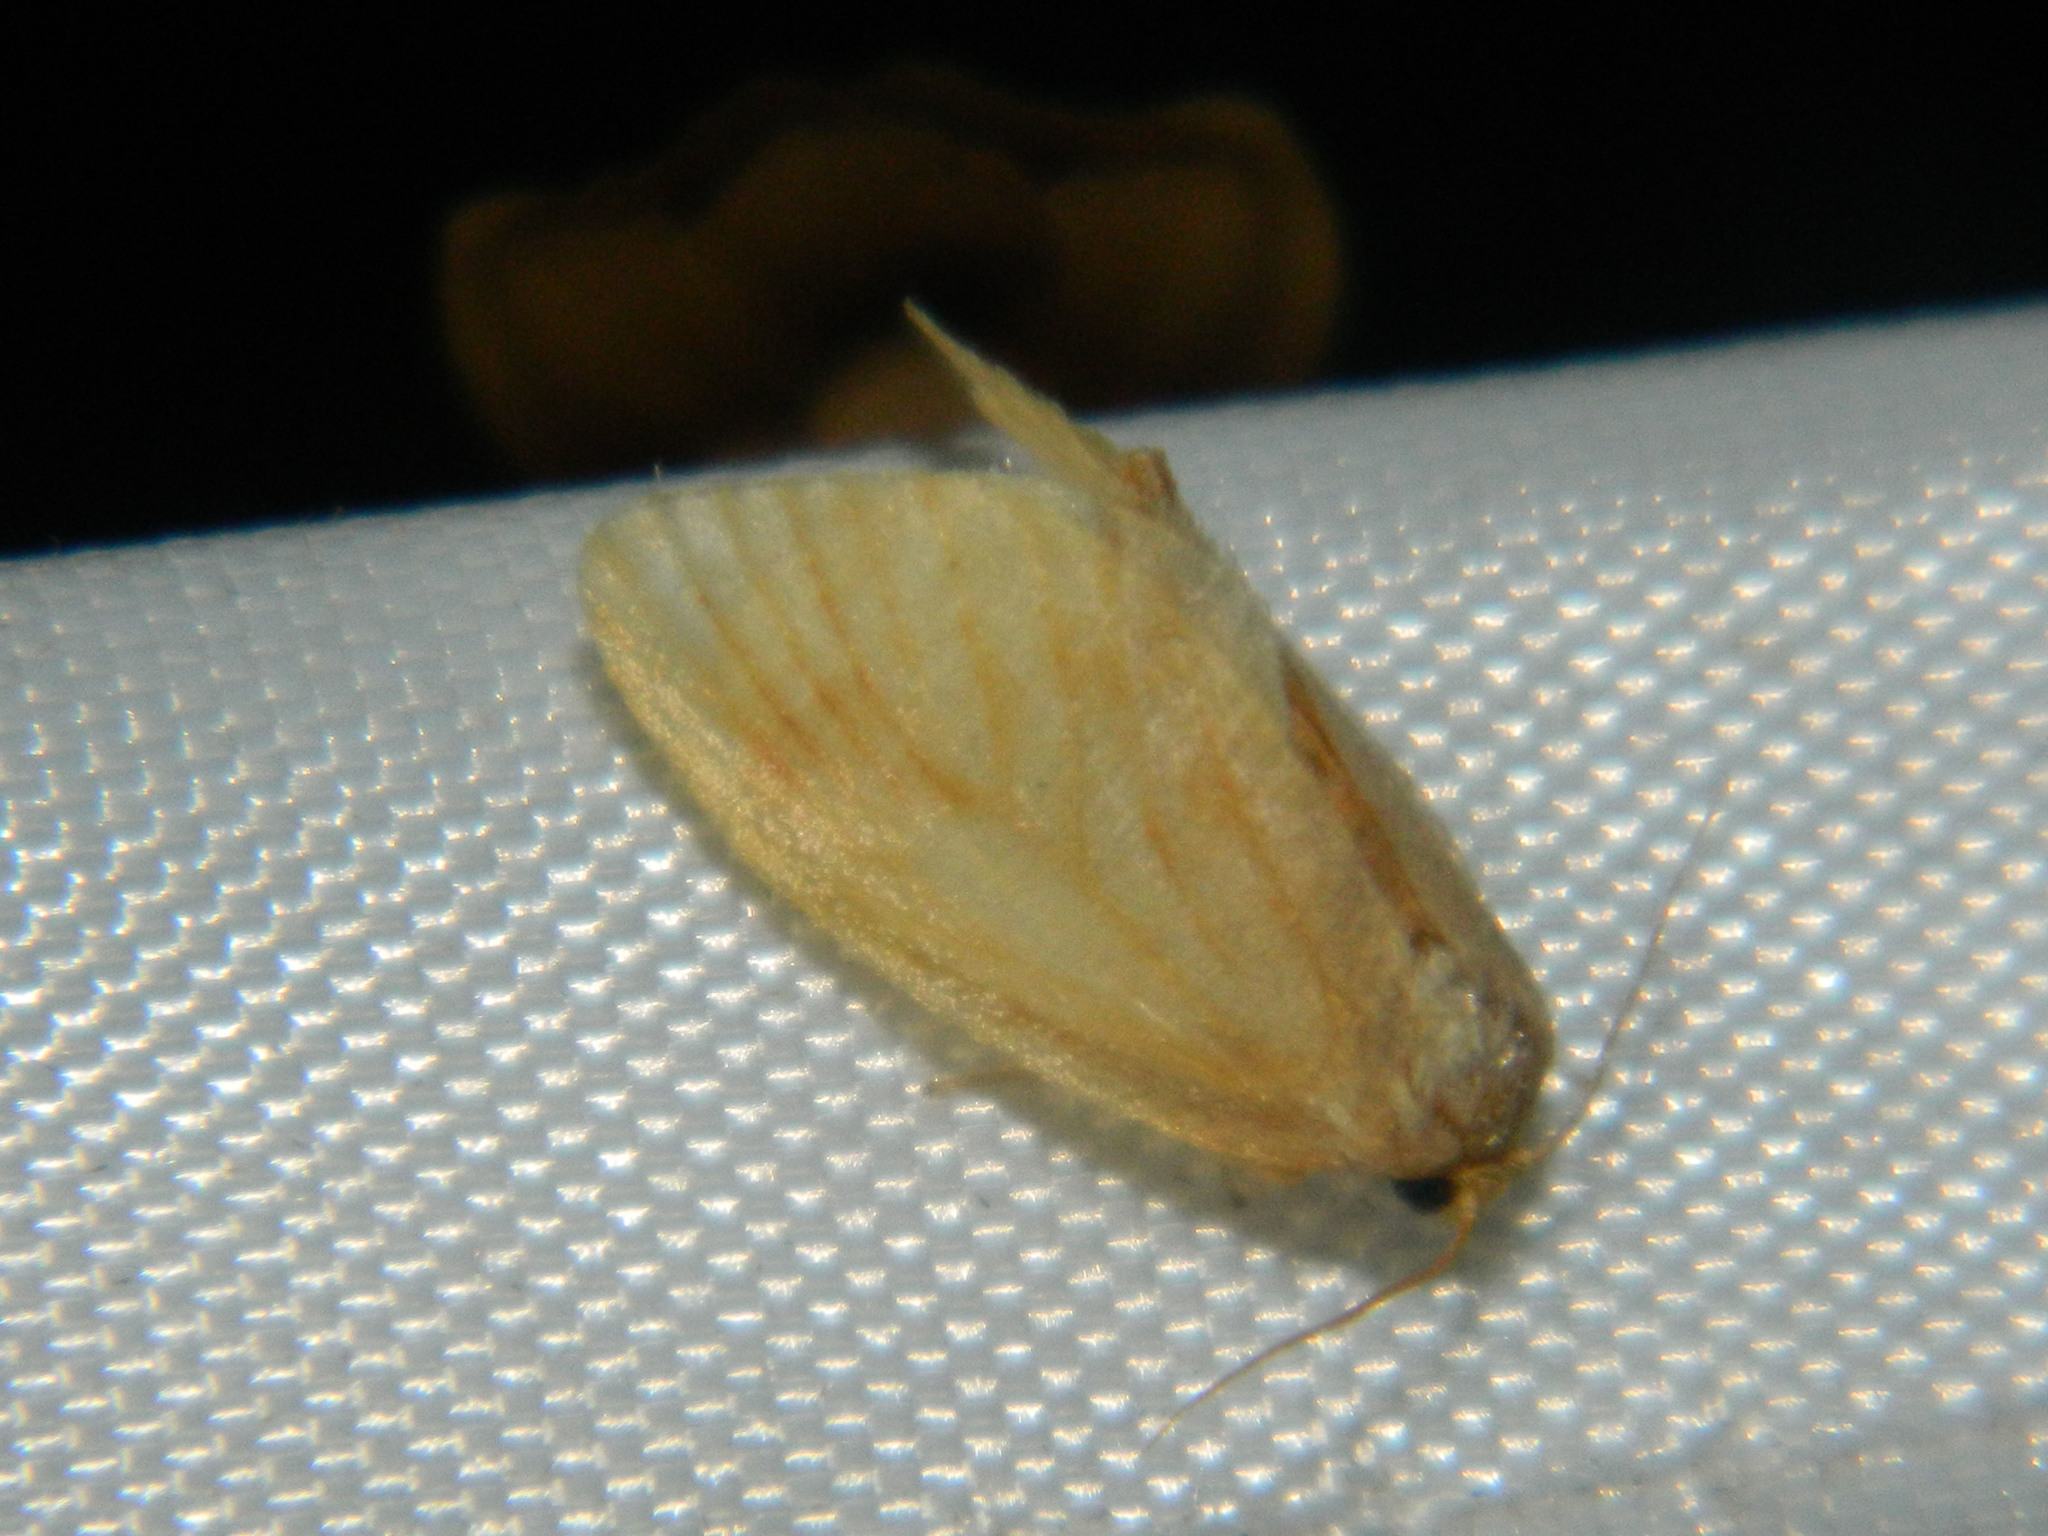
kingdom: Animalia
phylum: Arthropoda
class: Insecta
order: Lepidoptera
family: Limacodidae
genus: Tortricidia
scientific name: Tortricidia testacea
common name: Early button slug moth
